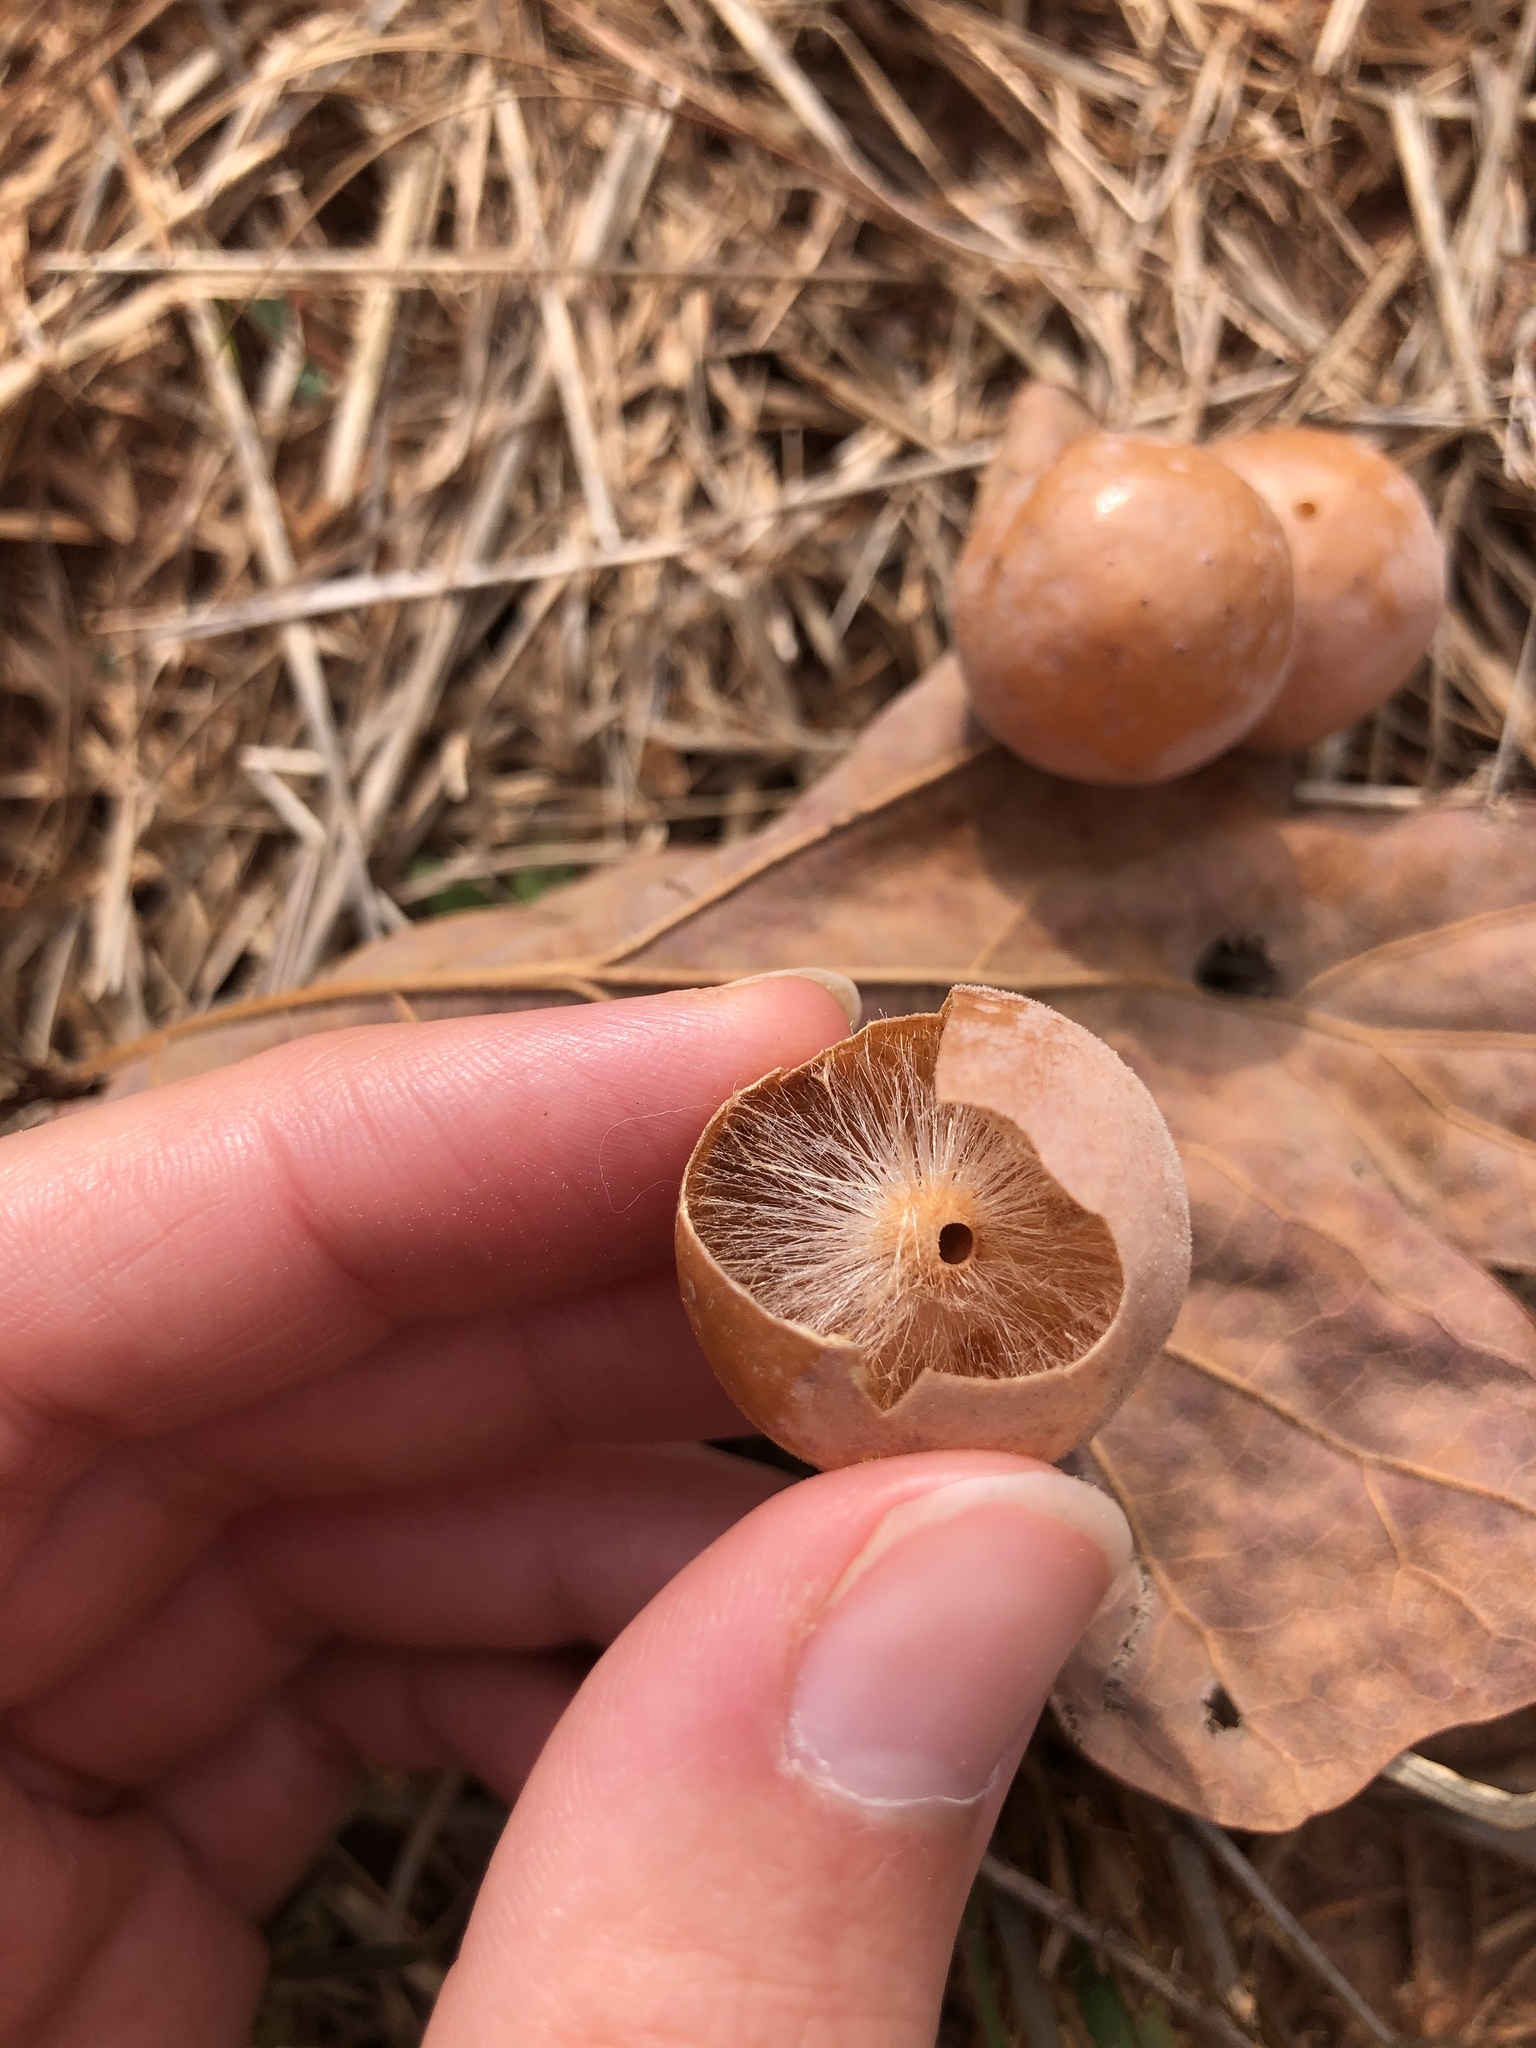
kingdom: Animalia
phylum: Arthropoda
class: Insecta
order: Hymenoptera
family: Cynipidae
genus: Atrusca
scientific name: Atrusca
